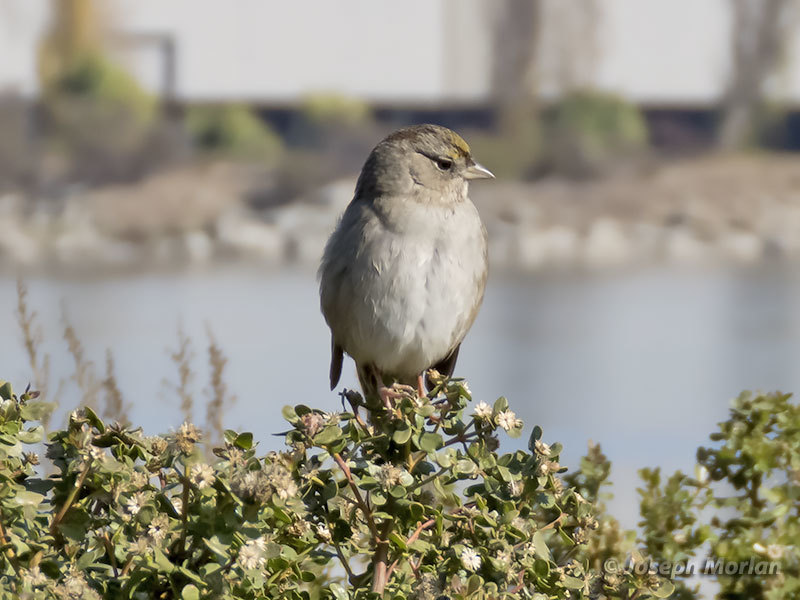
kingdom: Animalia
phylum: Chordata
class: Aves
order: Passeriformes
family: Passerellidae
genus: Zonotrichia
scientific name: Zonotrichia atricapilla
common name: Golden-crowned sparrow
